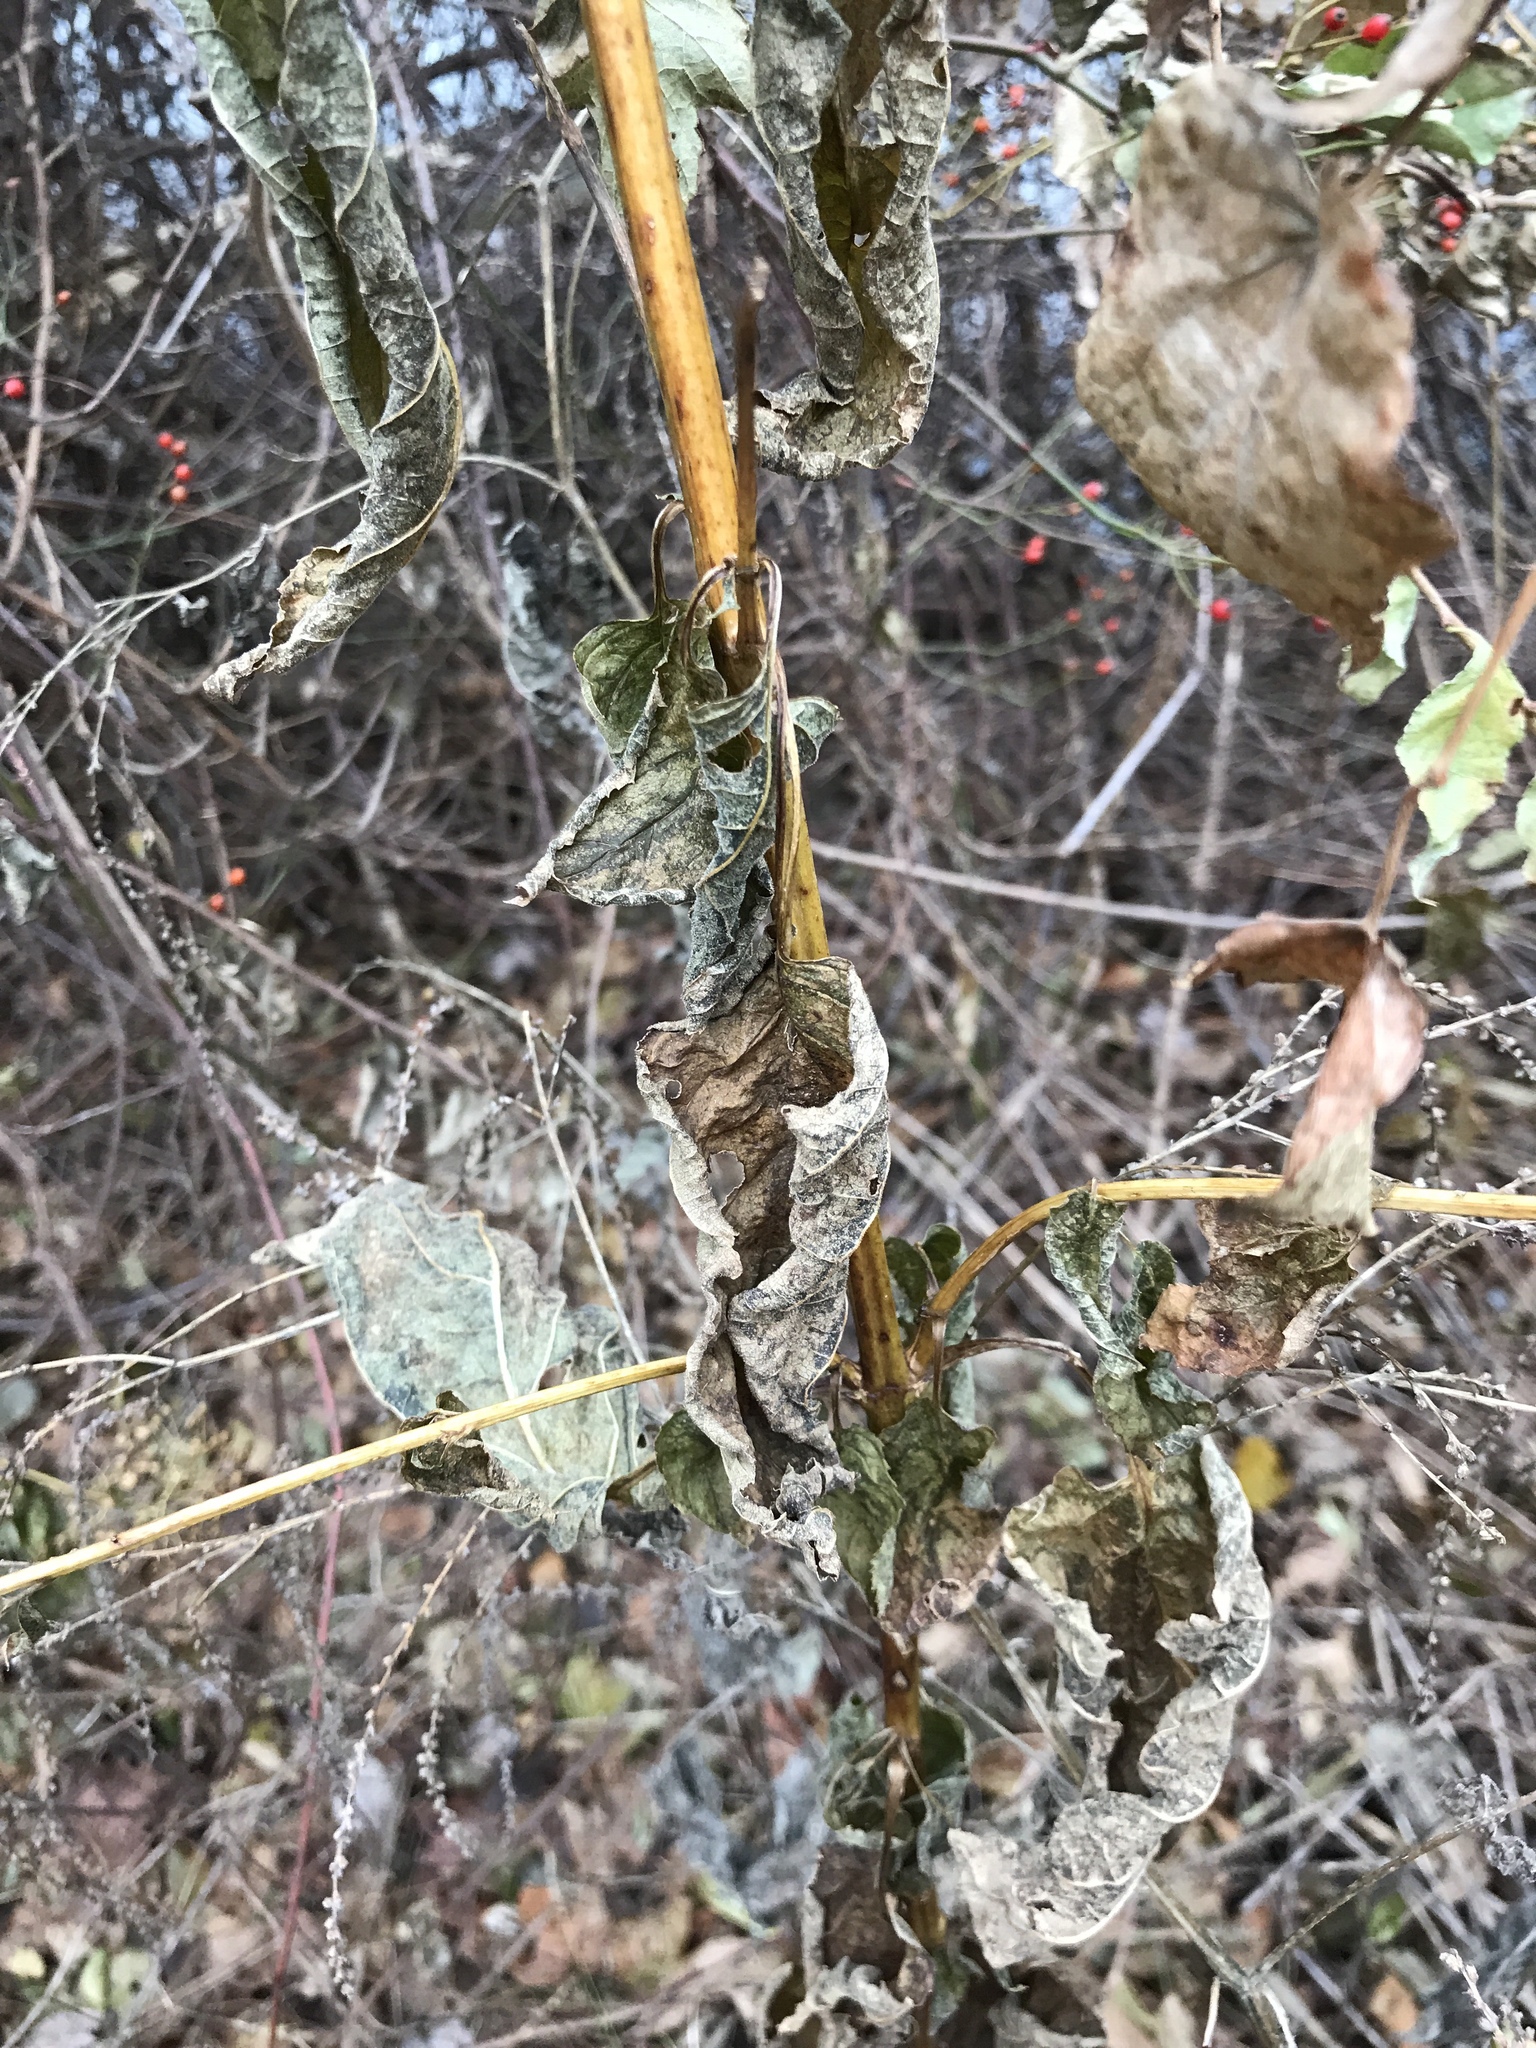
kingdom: Plantae
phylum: Tracheophyta
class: Magnoliopsida
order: Lamiales
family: Scrophulariaceae
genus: Scrophularia
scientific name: Scrophularia marilandica
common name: Eastern figwort
